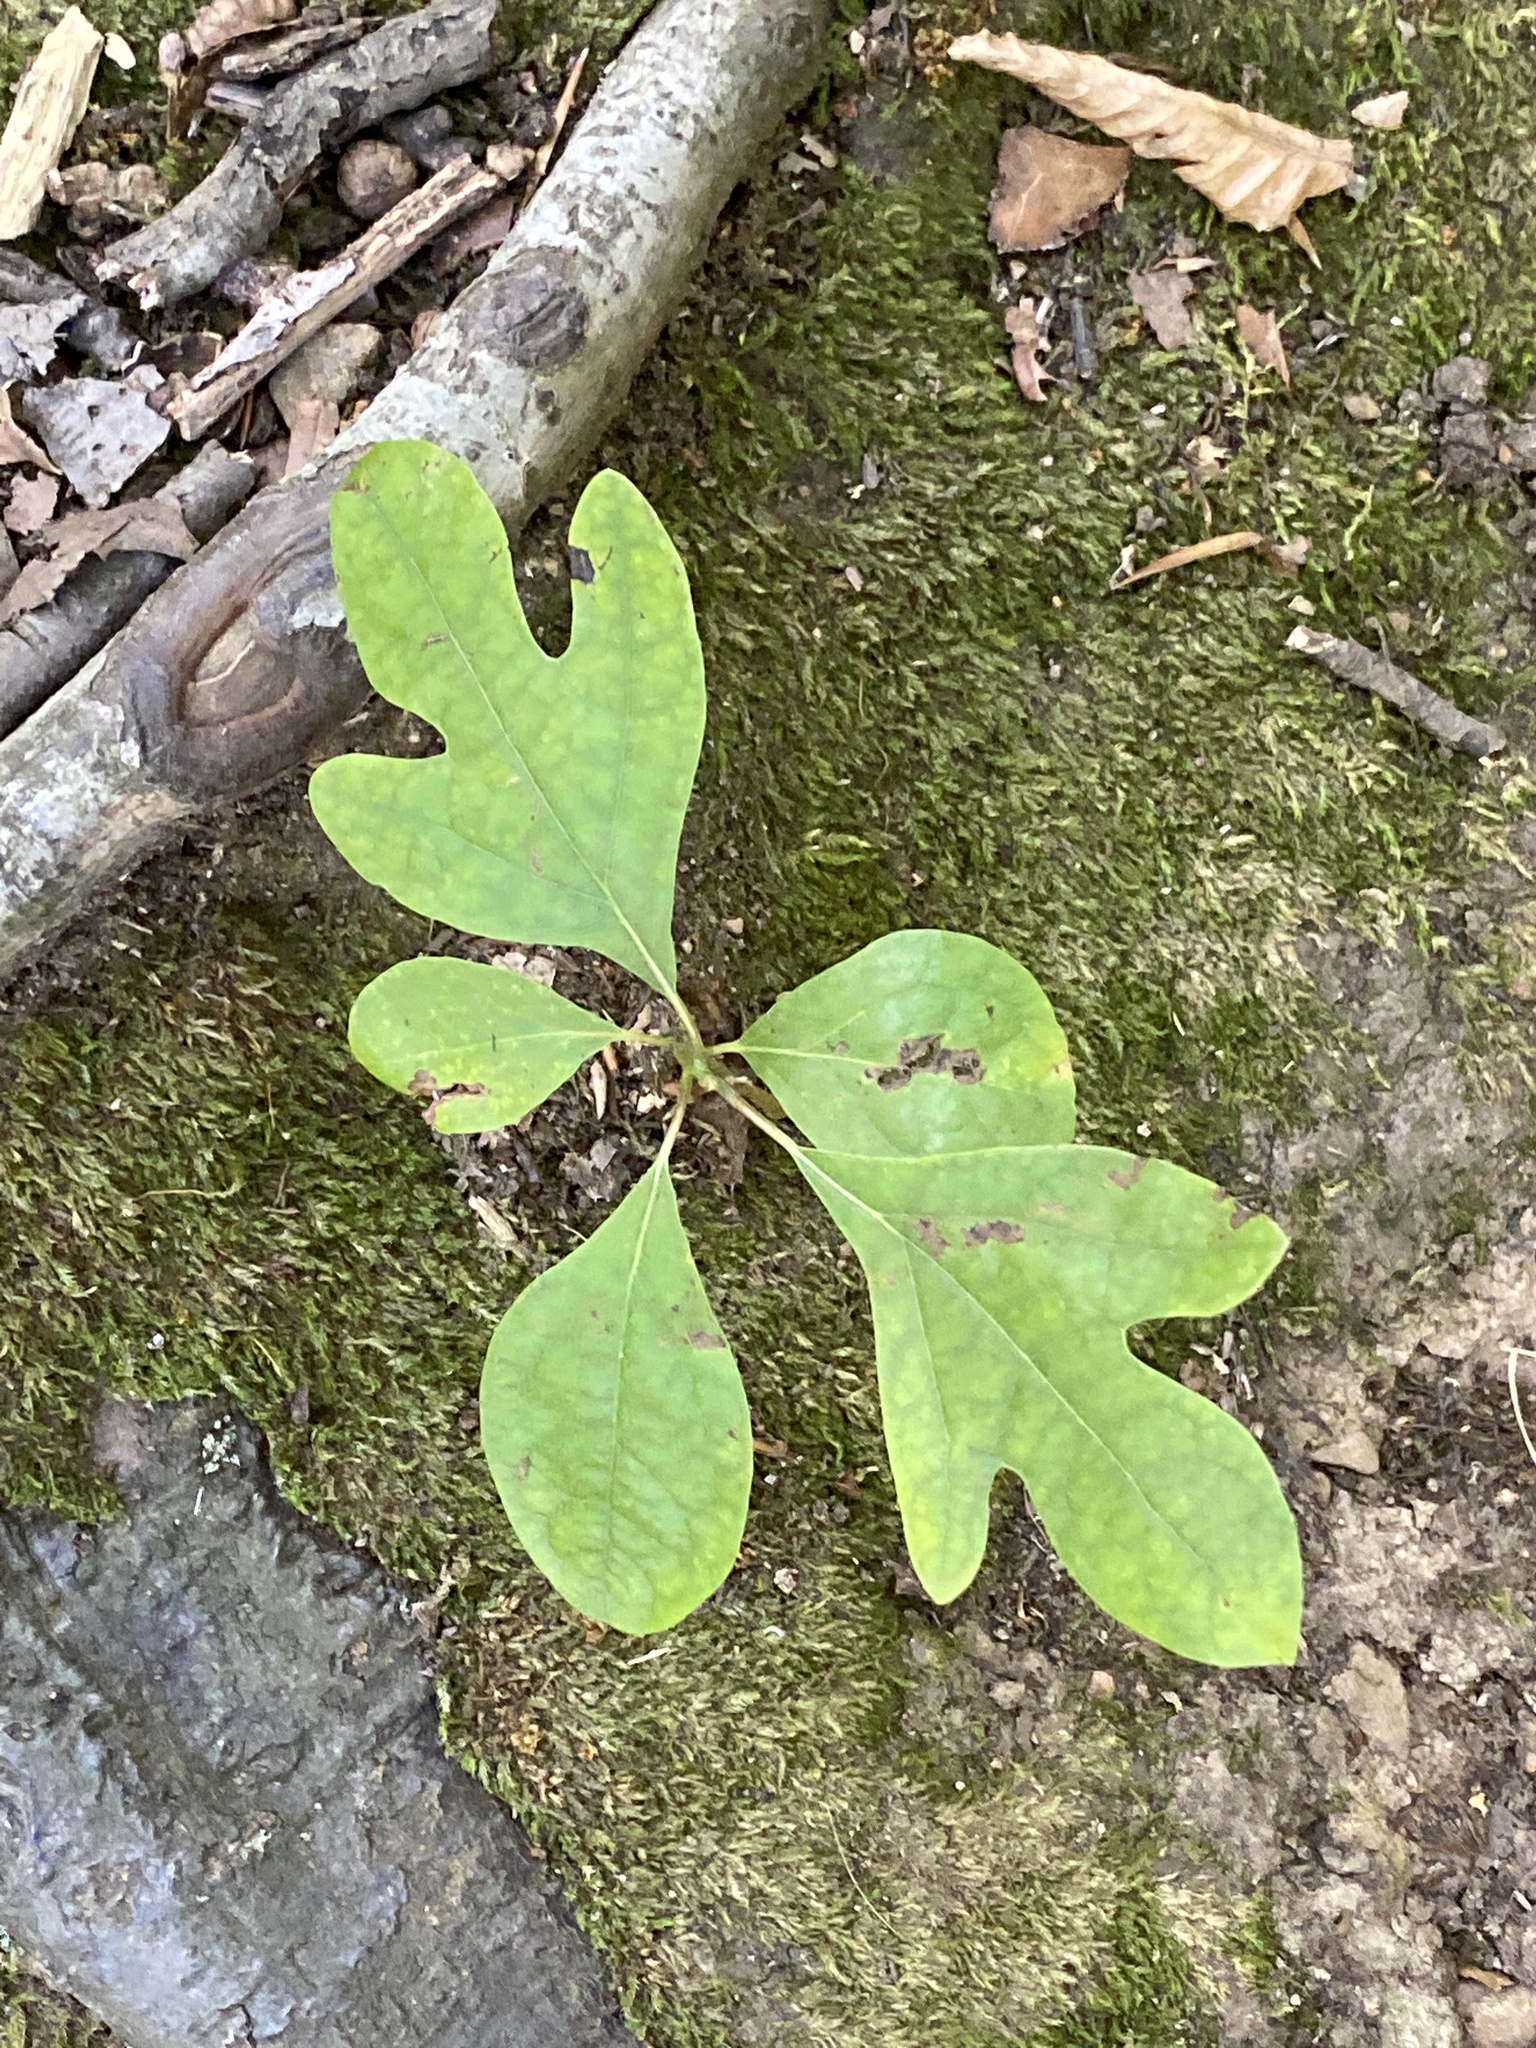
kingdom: Plantae
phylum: Tracheophyta
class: Magnoliopsida
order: Laurales
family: Lauraceae
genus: Sassafras
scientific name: Sassafras albidum
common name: Sassafras
